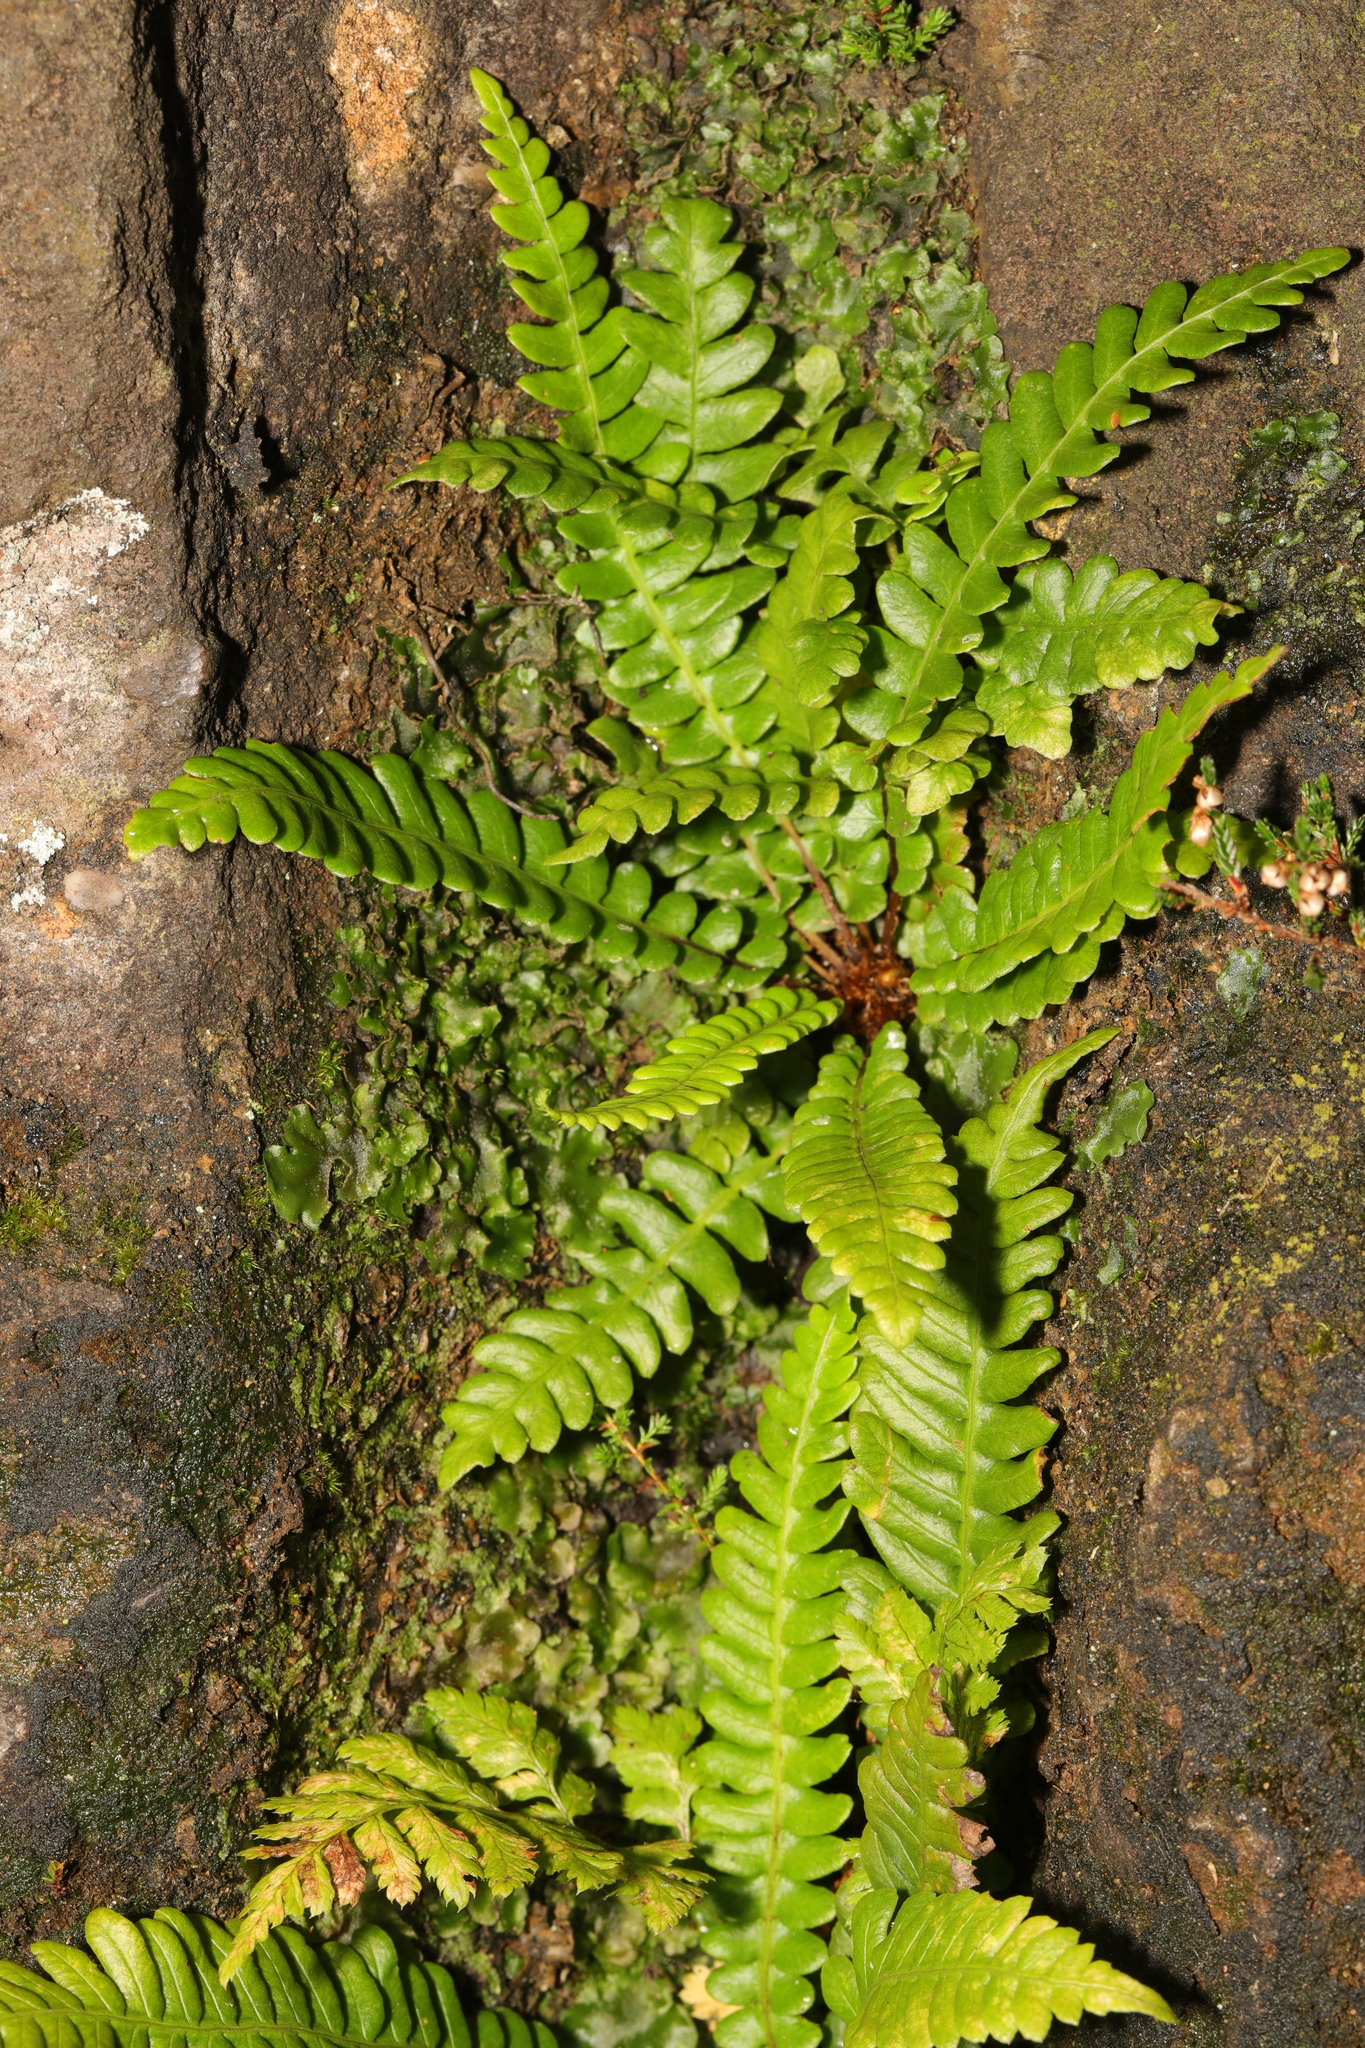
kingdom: Plantae
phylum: Tracheophyta
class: Polypodiopsida
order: Polypodiales
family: Blechnaceae
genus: Struthiopteris
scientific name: Struthiopteris spicant
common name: Deer fern
